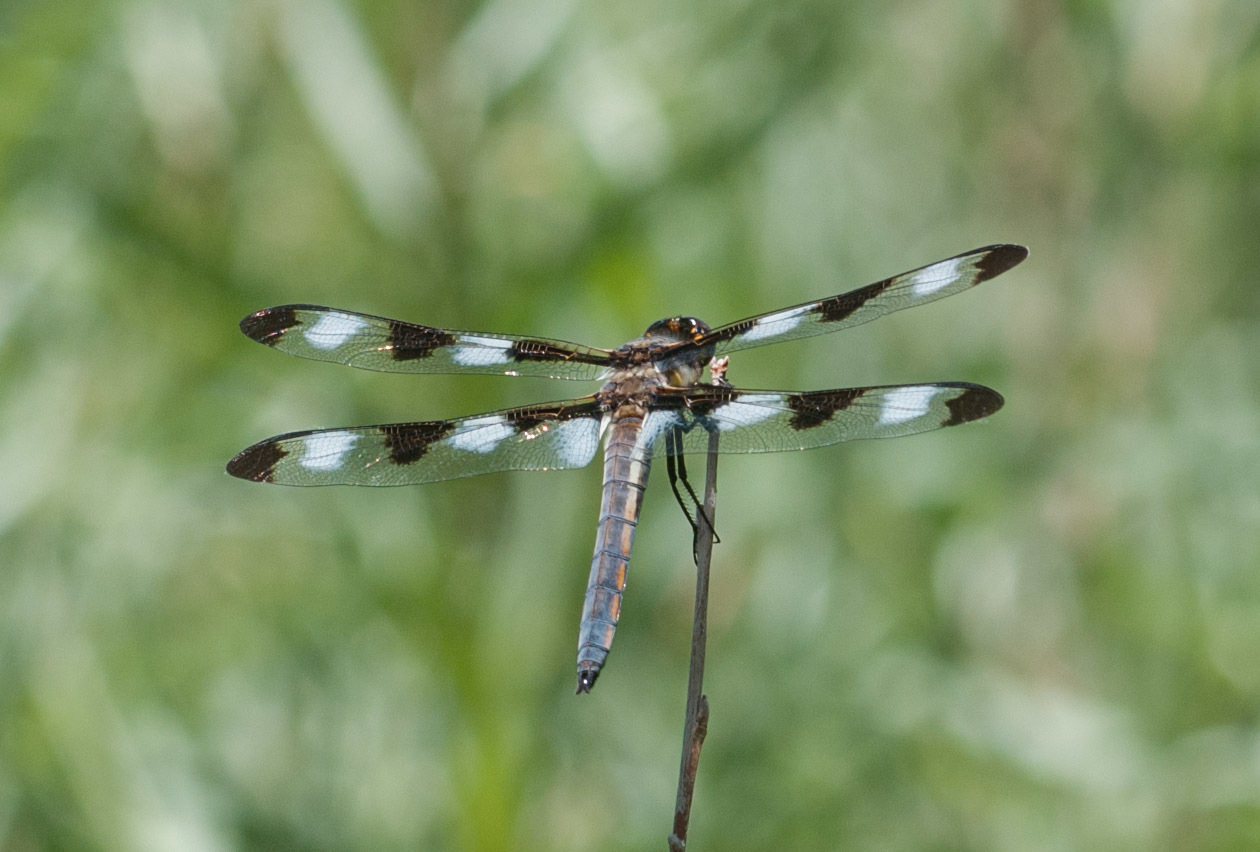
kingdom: Animalia
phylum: Arthropoda
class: Insecta
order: Odonata
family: Libellulidae
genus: Libellula
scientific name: Libellula pulchella
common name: Twelve-spotted skimmer
